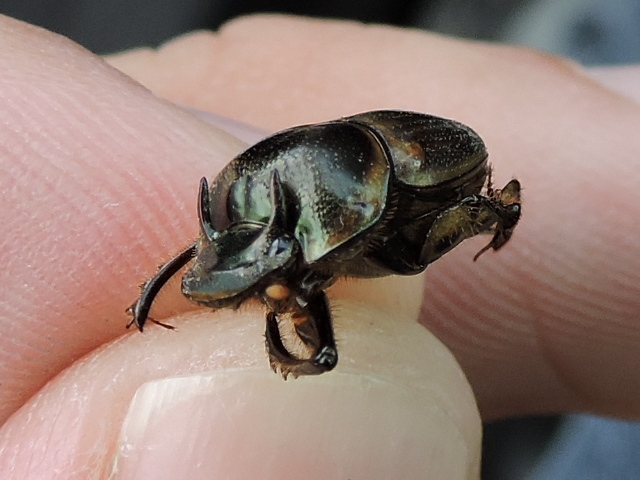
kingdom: Animalia
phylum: Arthropoda
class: Insecta
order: Coleoptera
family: Scarabaeidae
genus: Digitonthophagus
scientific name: Digitonthophagus gazella
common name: Brown dung beetle
